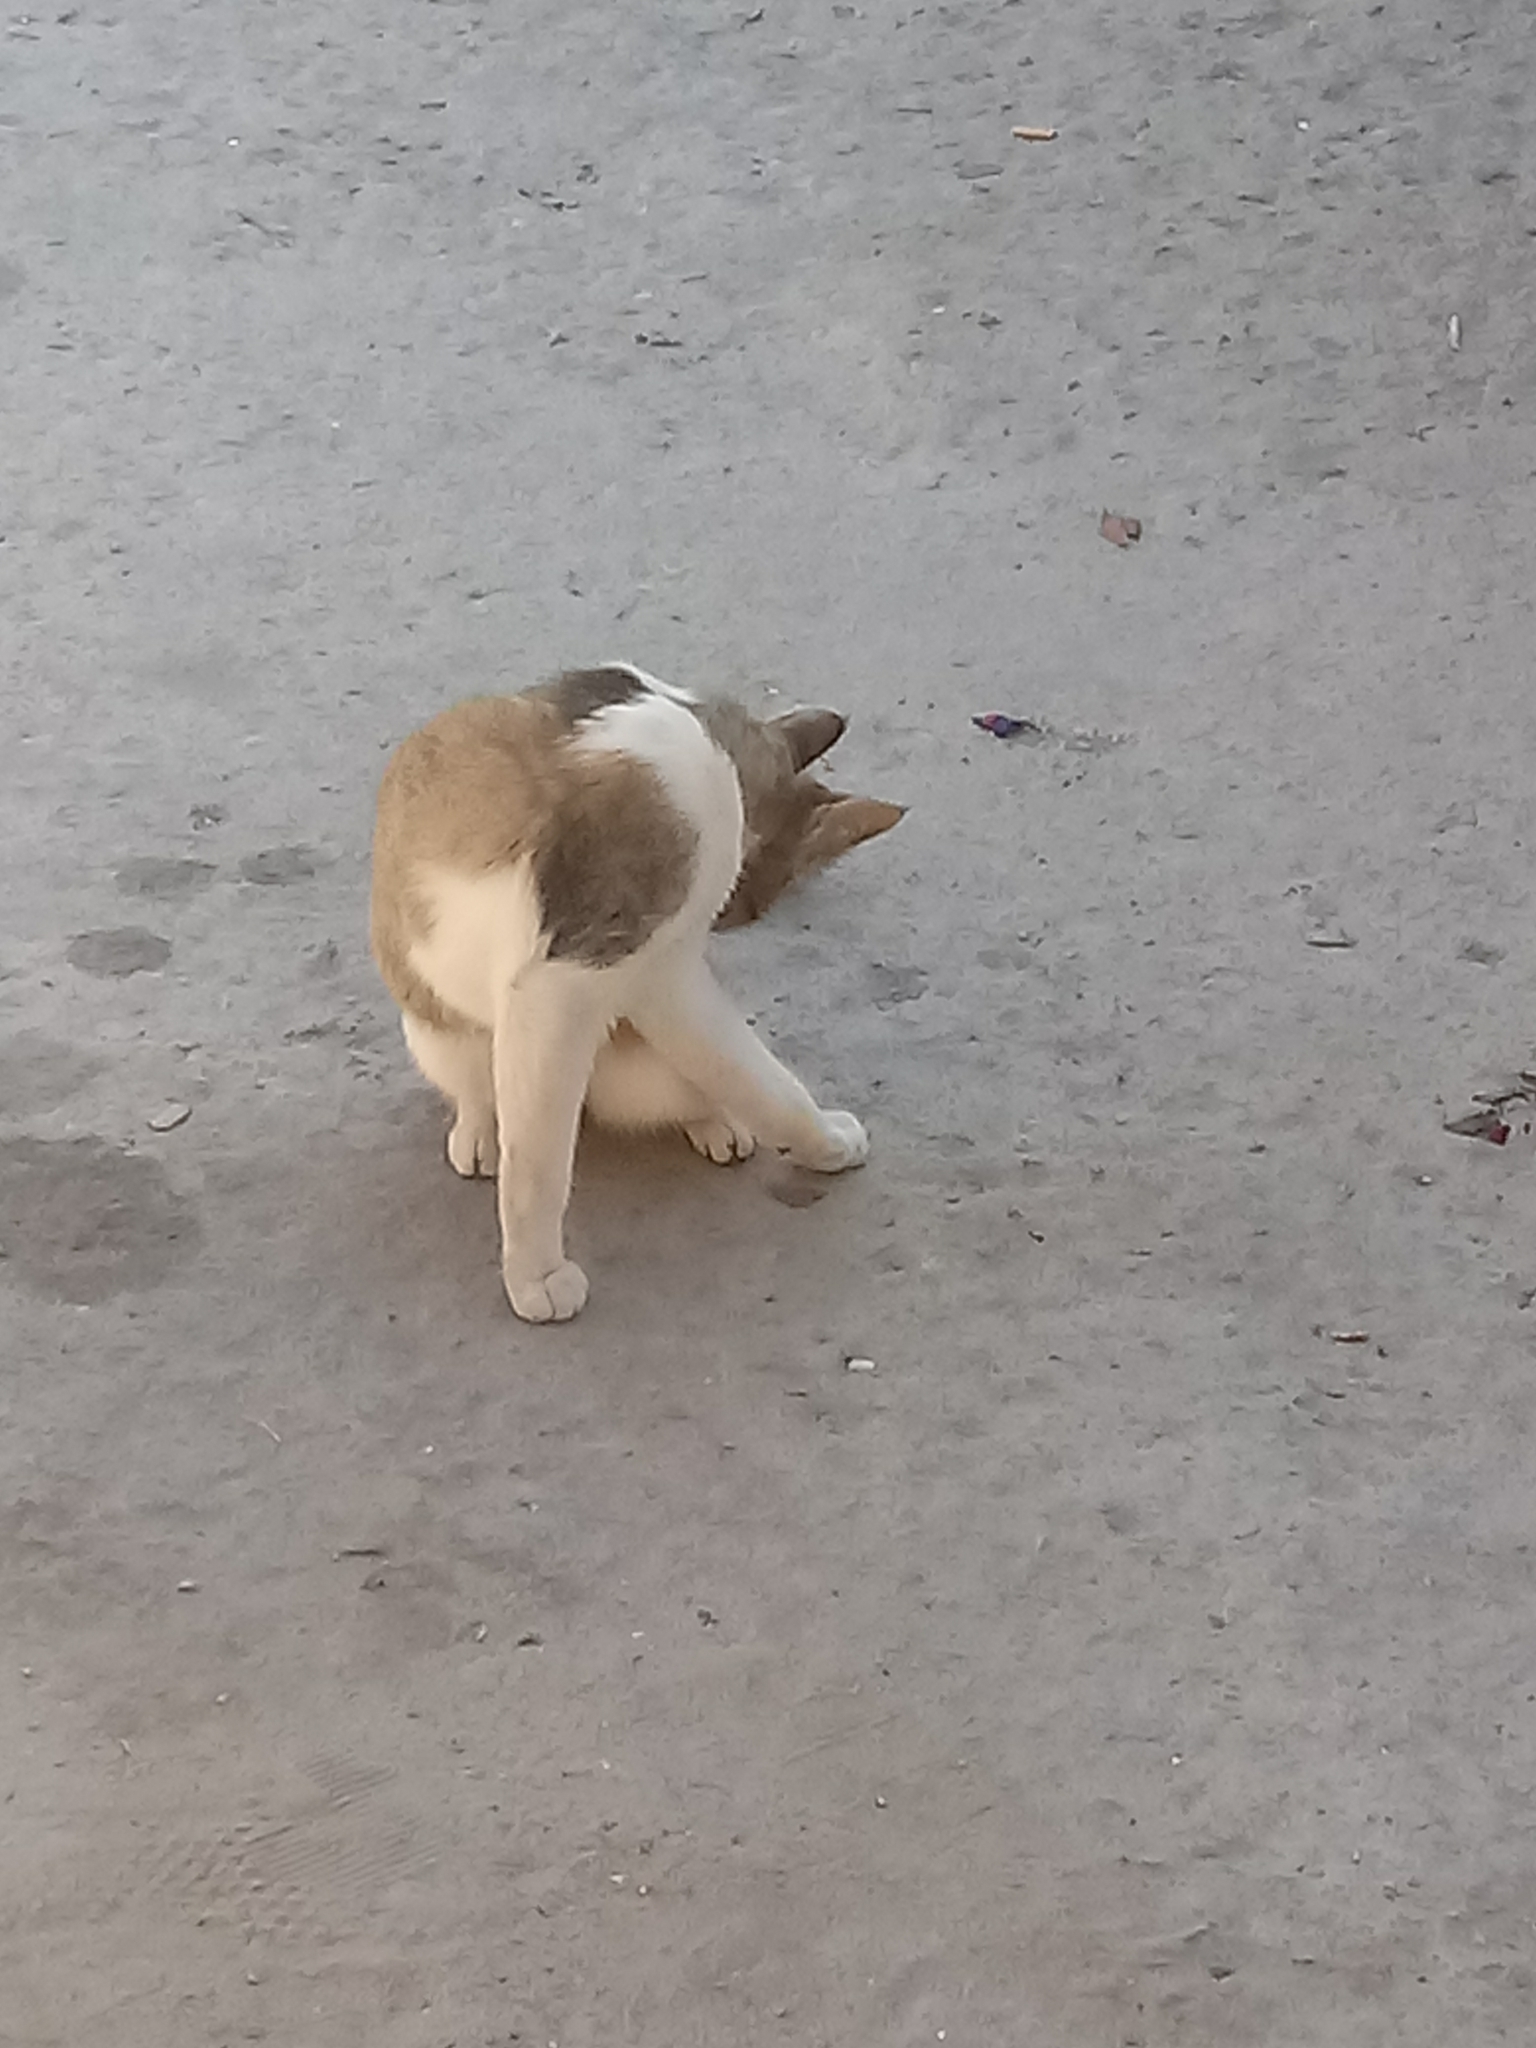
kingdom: Animalia
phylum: Chordata
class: Mammalia
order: Carnivora
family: Felidae
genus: Felis
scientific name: Felis catus
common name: Domestic cat
